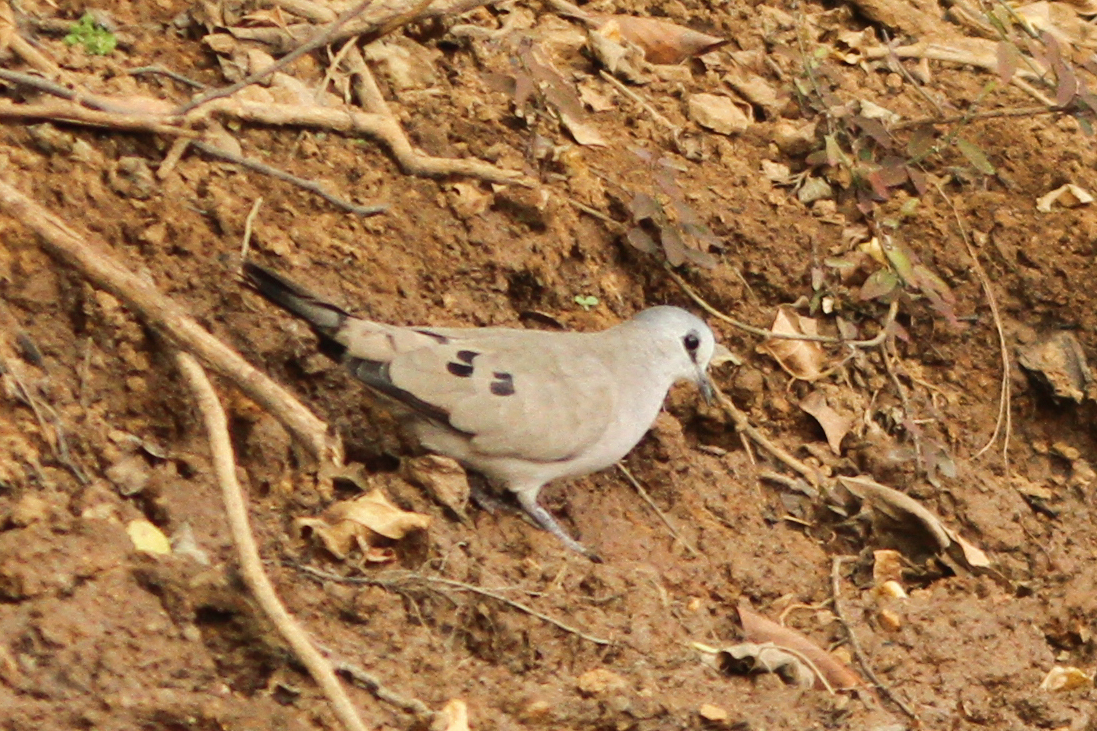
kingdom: Animalia
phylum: Chordata
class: Aves
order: Columbiformes
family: Columbidae
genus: Turtur
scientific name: Turtur abyssinicus
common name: Black-billed wood dove
